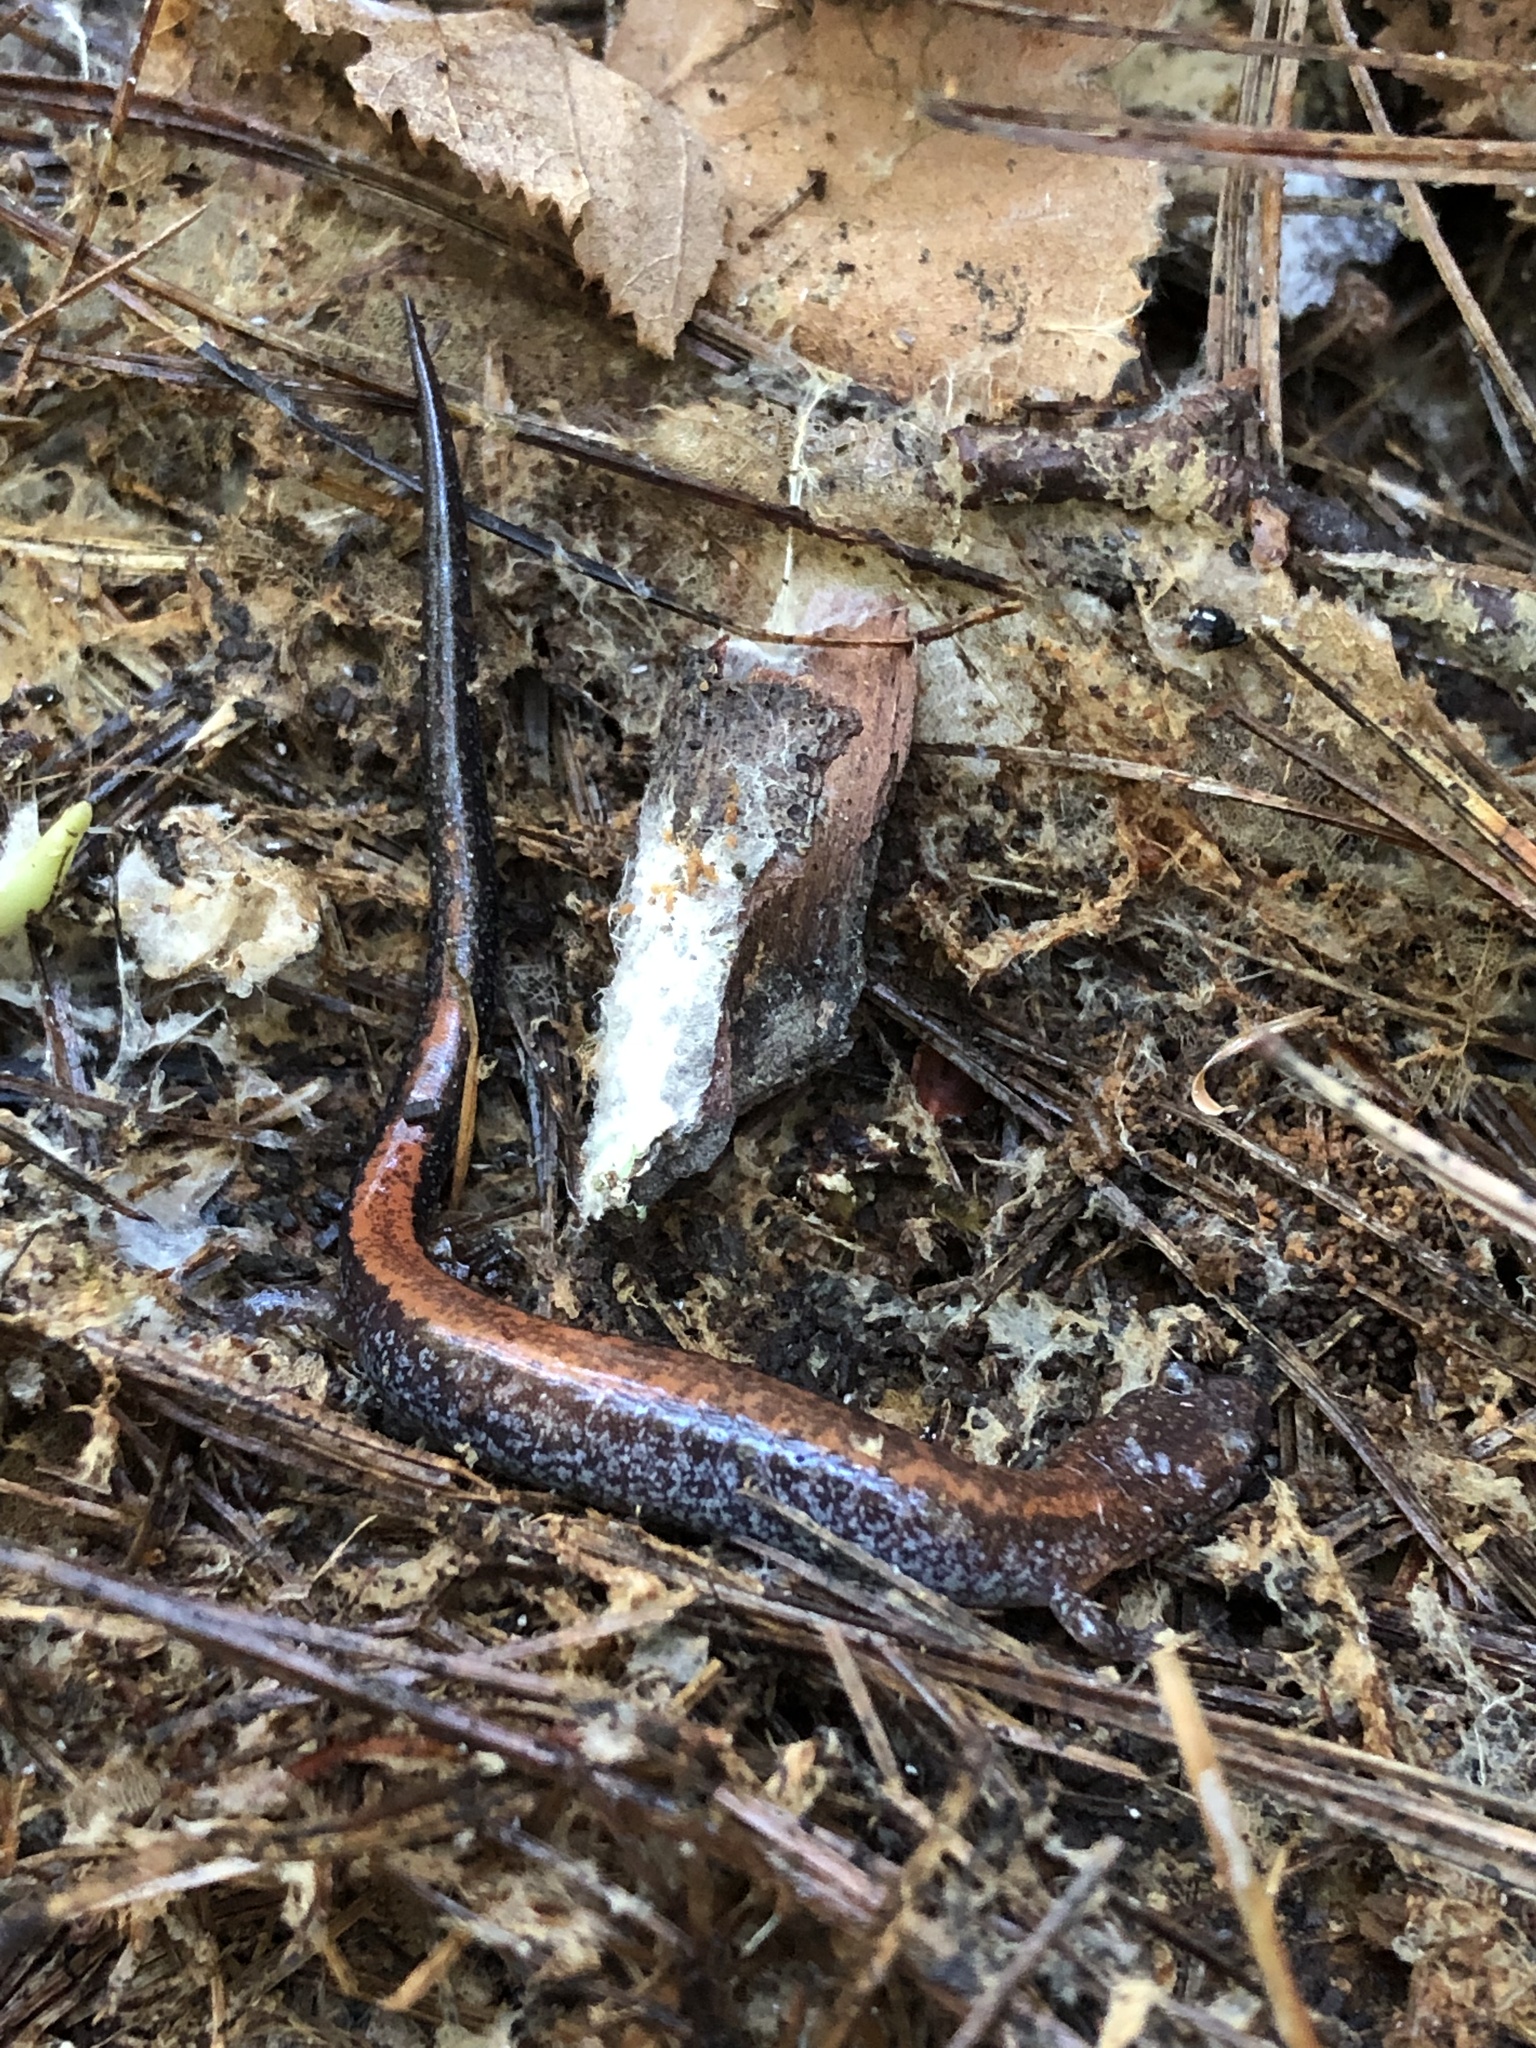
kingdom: Animalia
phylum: Chordata
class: Amphibia
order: Caudata
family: Plethodontidae
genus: Plethodon
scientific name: Plethodon cinereus
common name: Redback salamander
